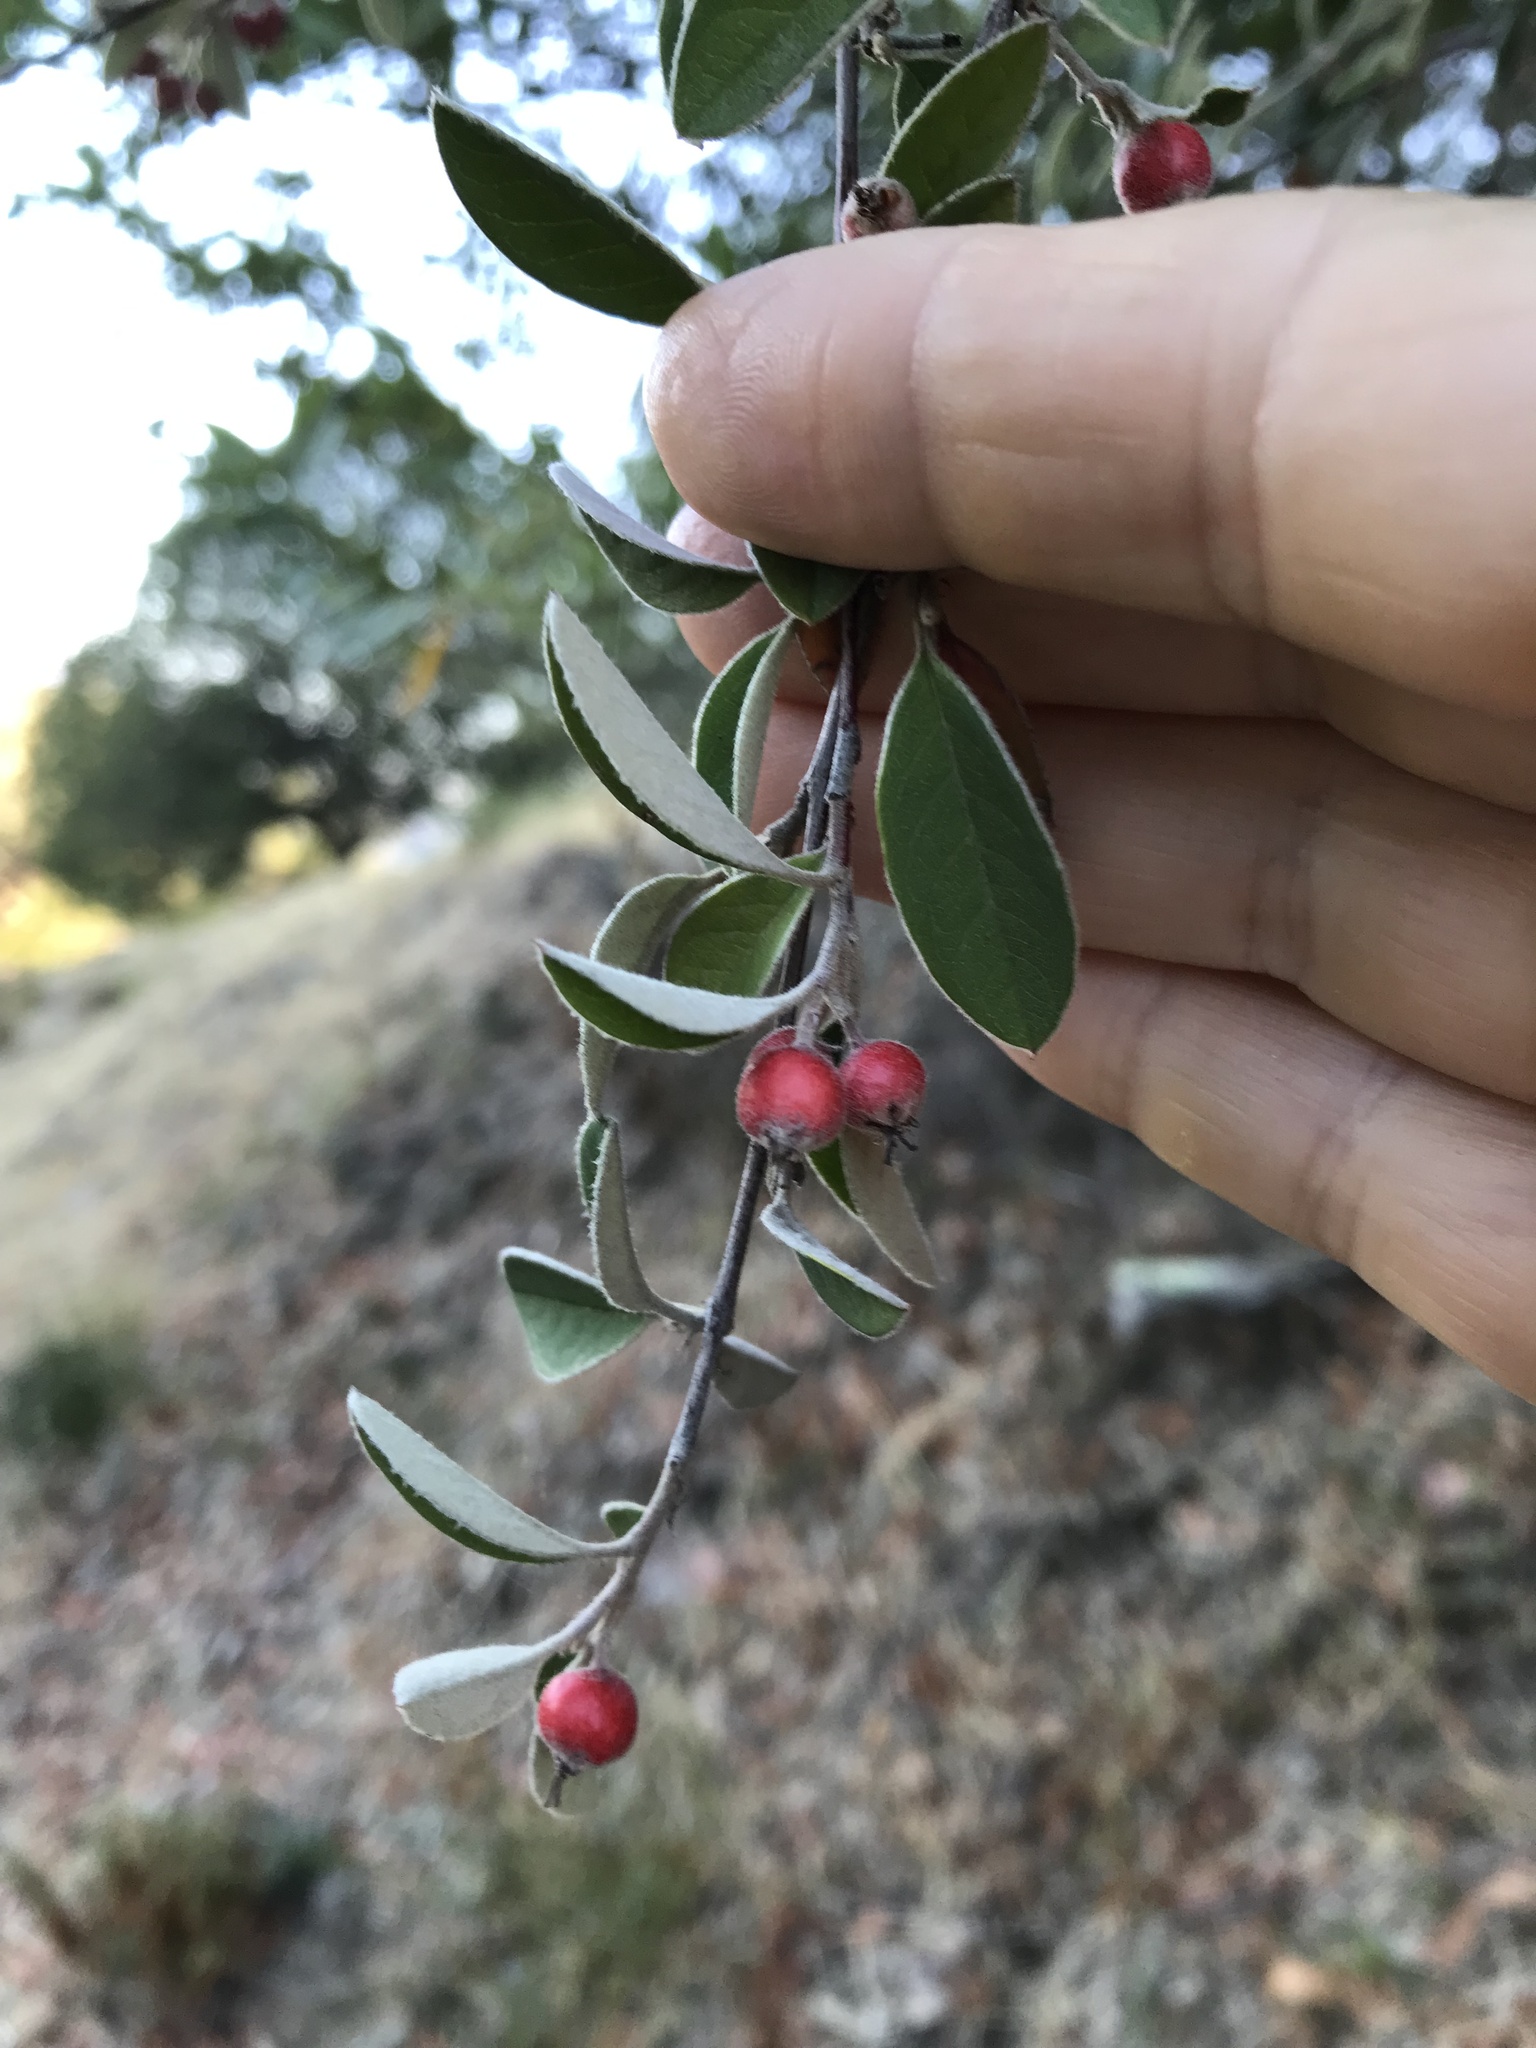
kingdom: Plantae
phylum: Tracheophyta
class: Magnoliopsida
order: Rosales
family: Rosaceae
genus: Cotoneaster
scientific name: Cotoneaster pannosus
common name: Silverleaf cotoneaster
